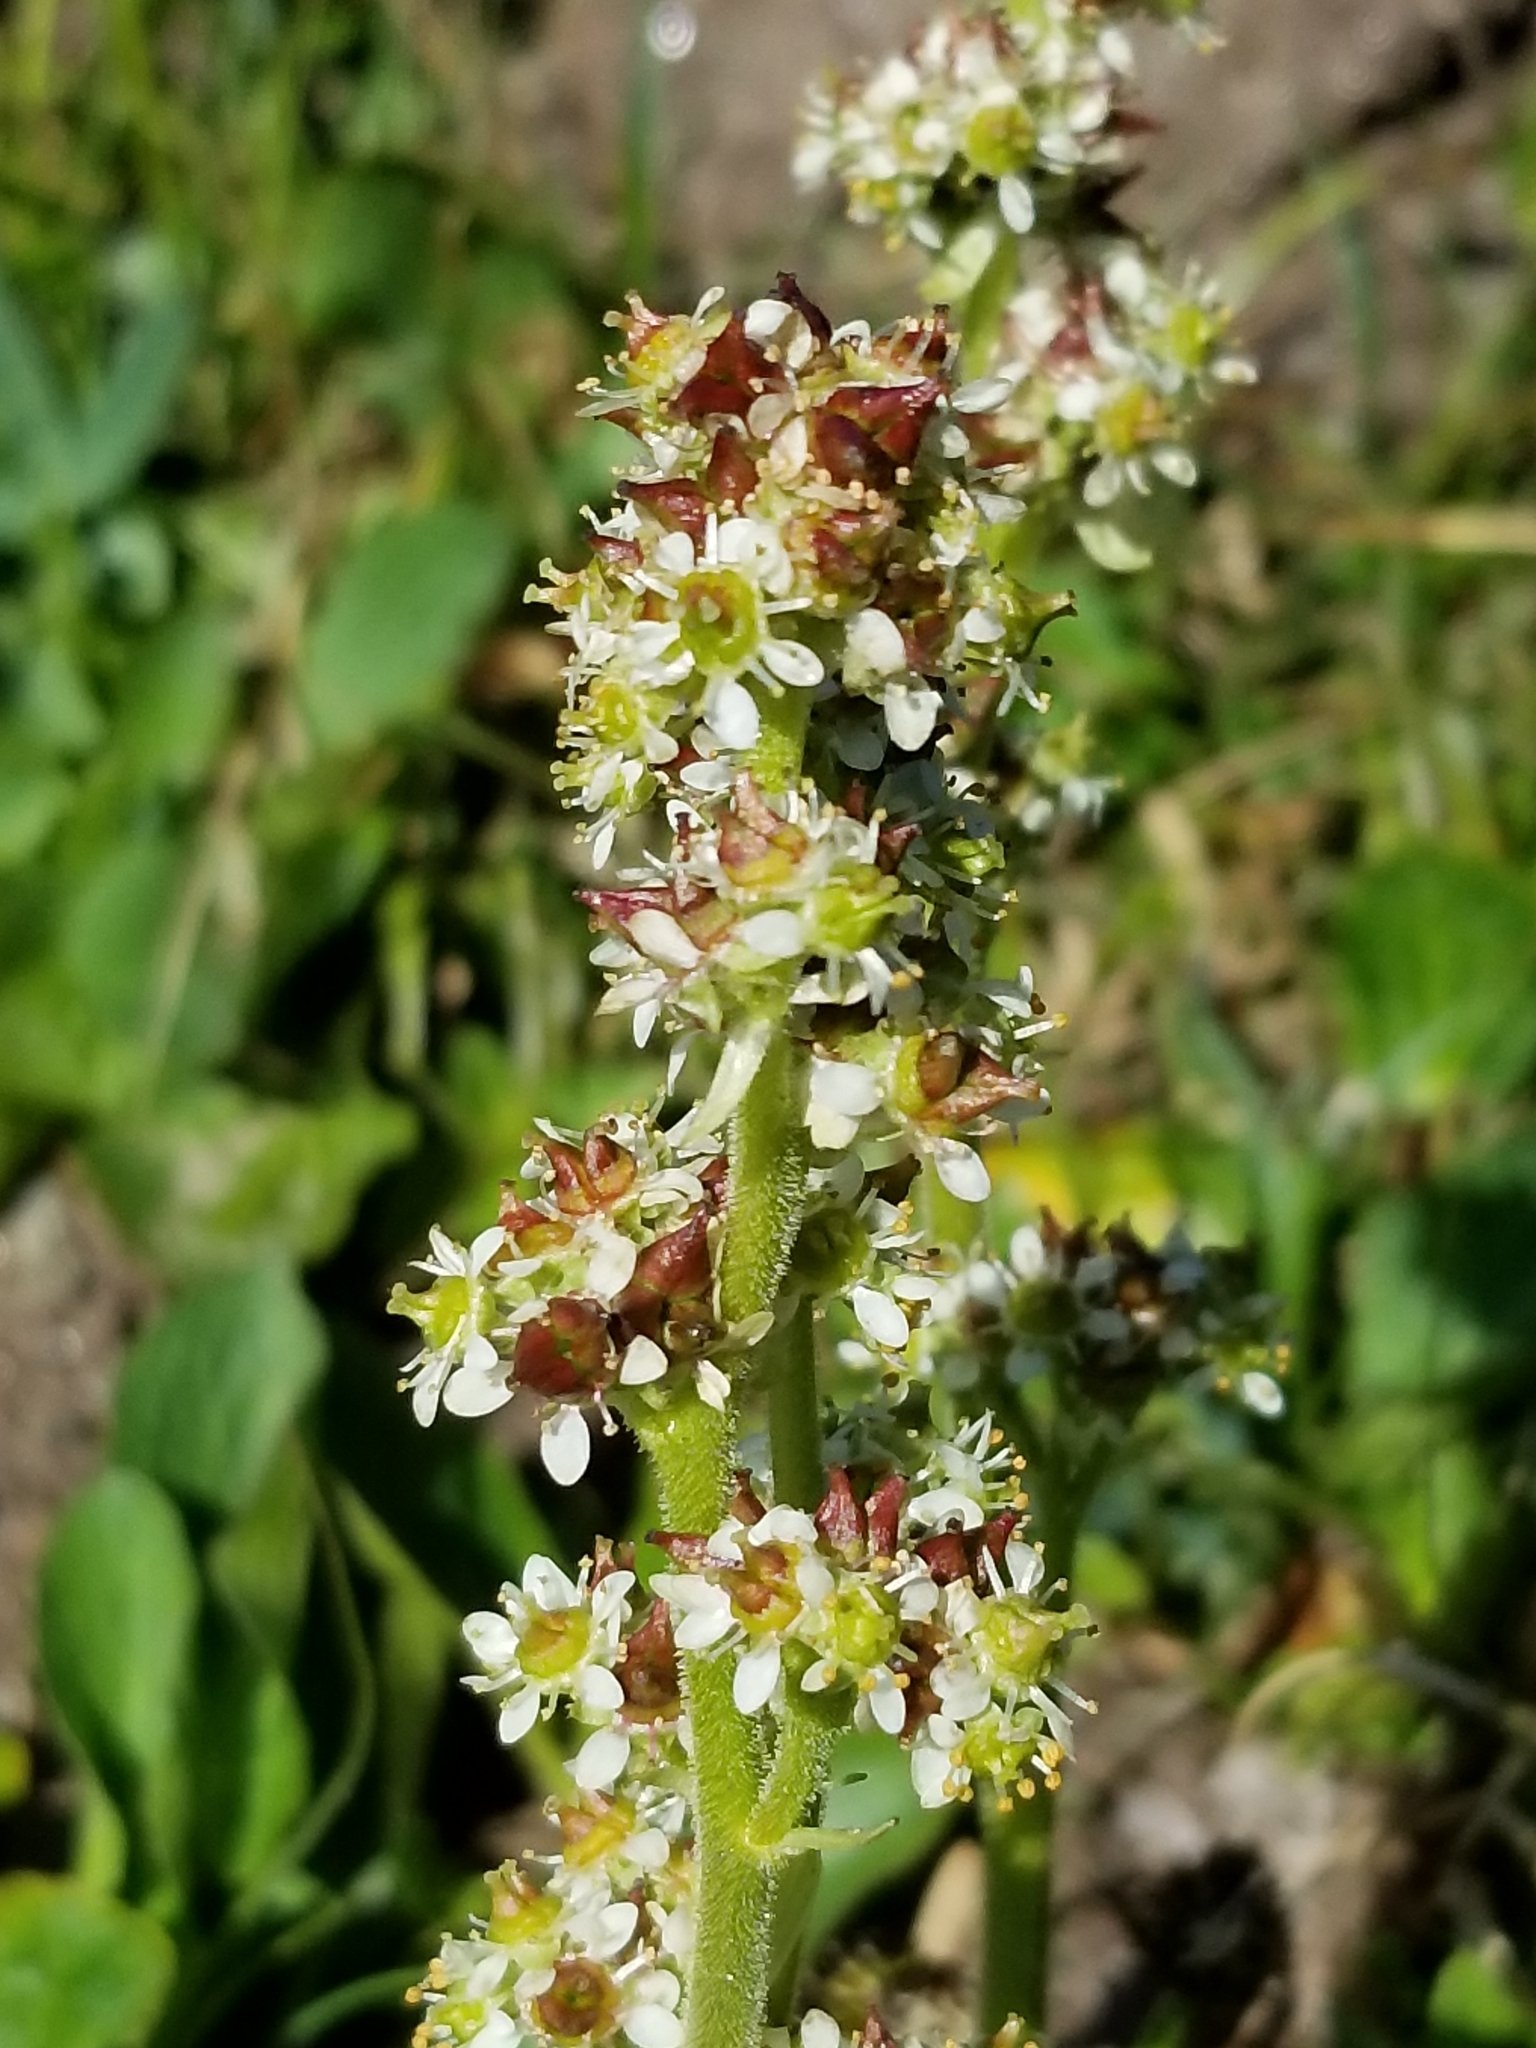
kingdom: Plantae
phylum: Tracheophyta
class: Magnoliopsida
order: Saxifragales
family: Saxifragaceae
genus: Micranthes
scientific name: Micranthes oregana
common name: Bog saxifrage
